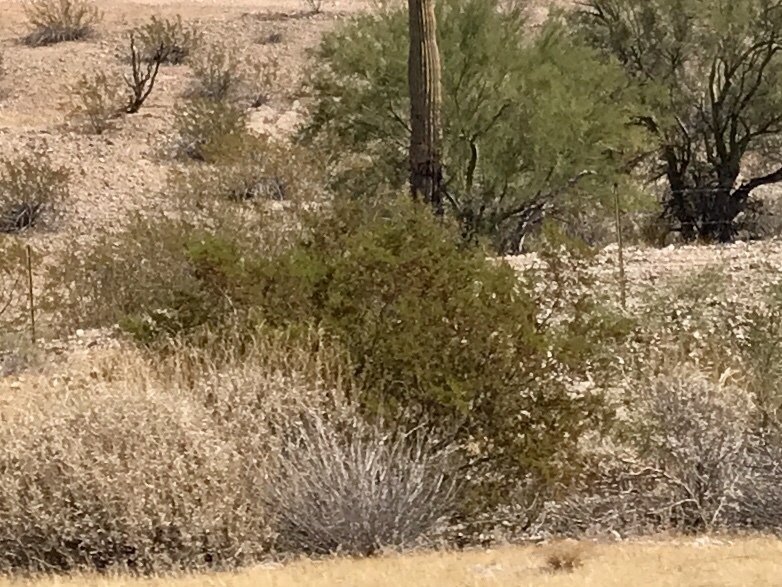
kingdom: Plantae
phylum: Tracheophyta
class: Magnoliopsida
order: Zygophyllales
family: Zygophyllaceae
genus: Larrea
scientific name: Larrea tridentata
